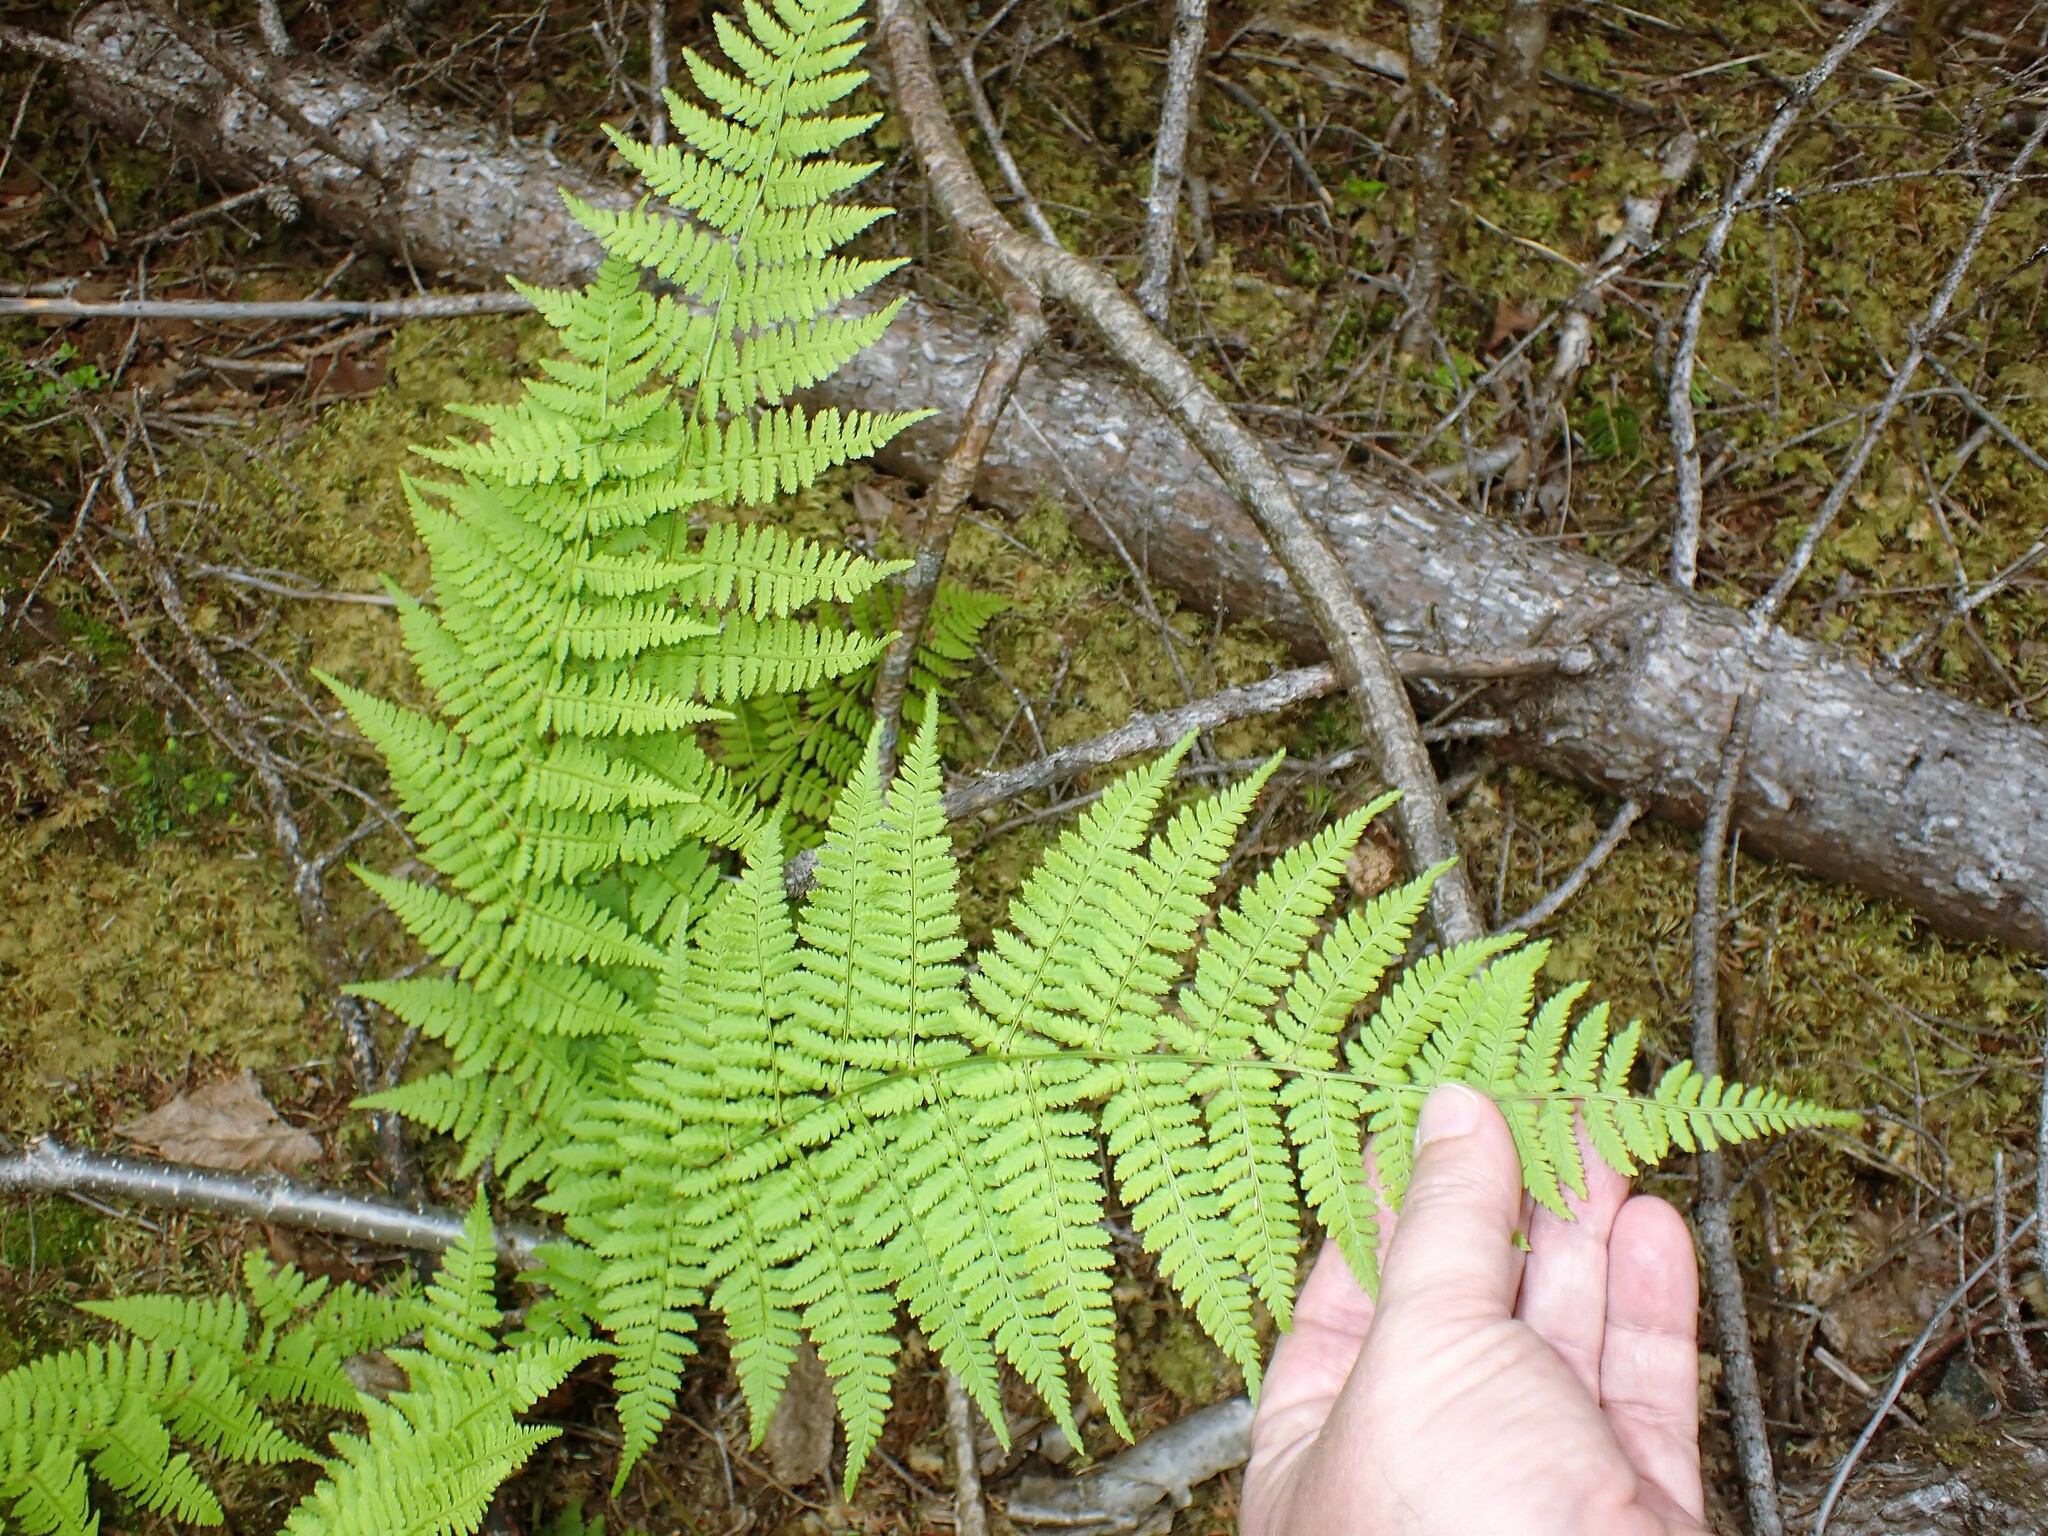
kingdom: Plantae
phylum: Tracheophyta
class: Polypodiopsida
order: Polypodiales
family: Dryopteridaceae
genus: Dryopteris
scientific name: Dryopteris intermedia
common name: Evergreen wood fern
